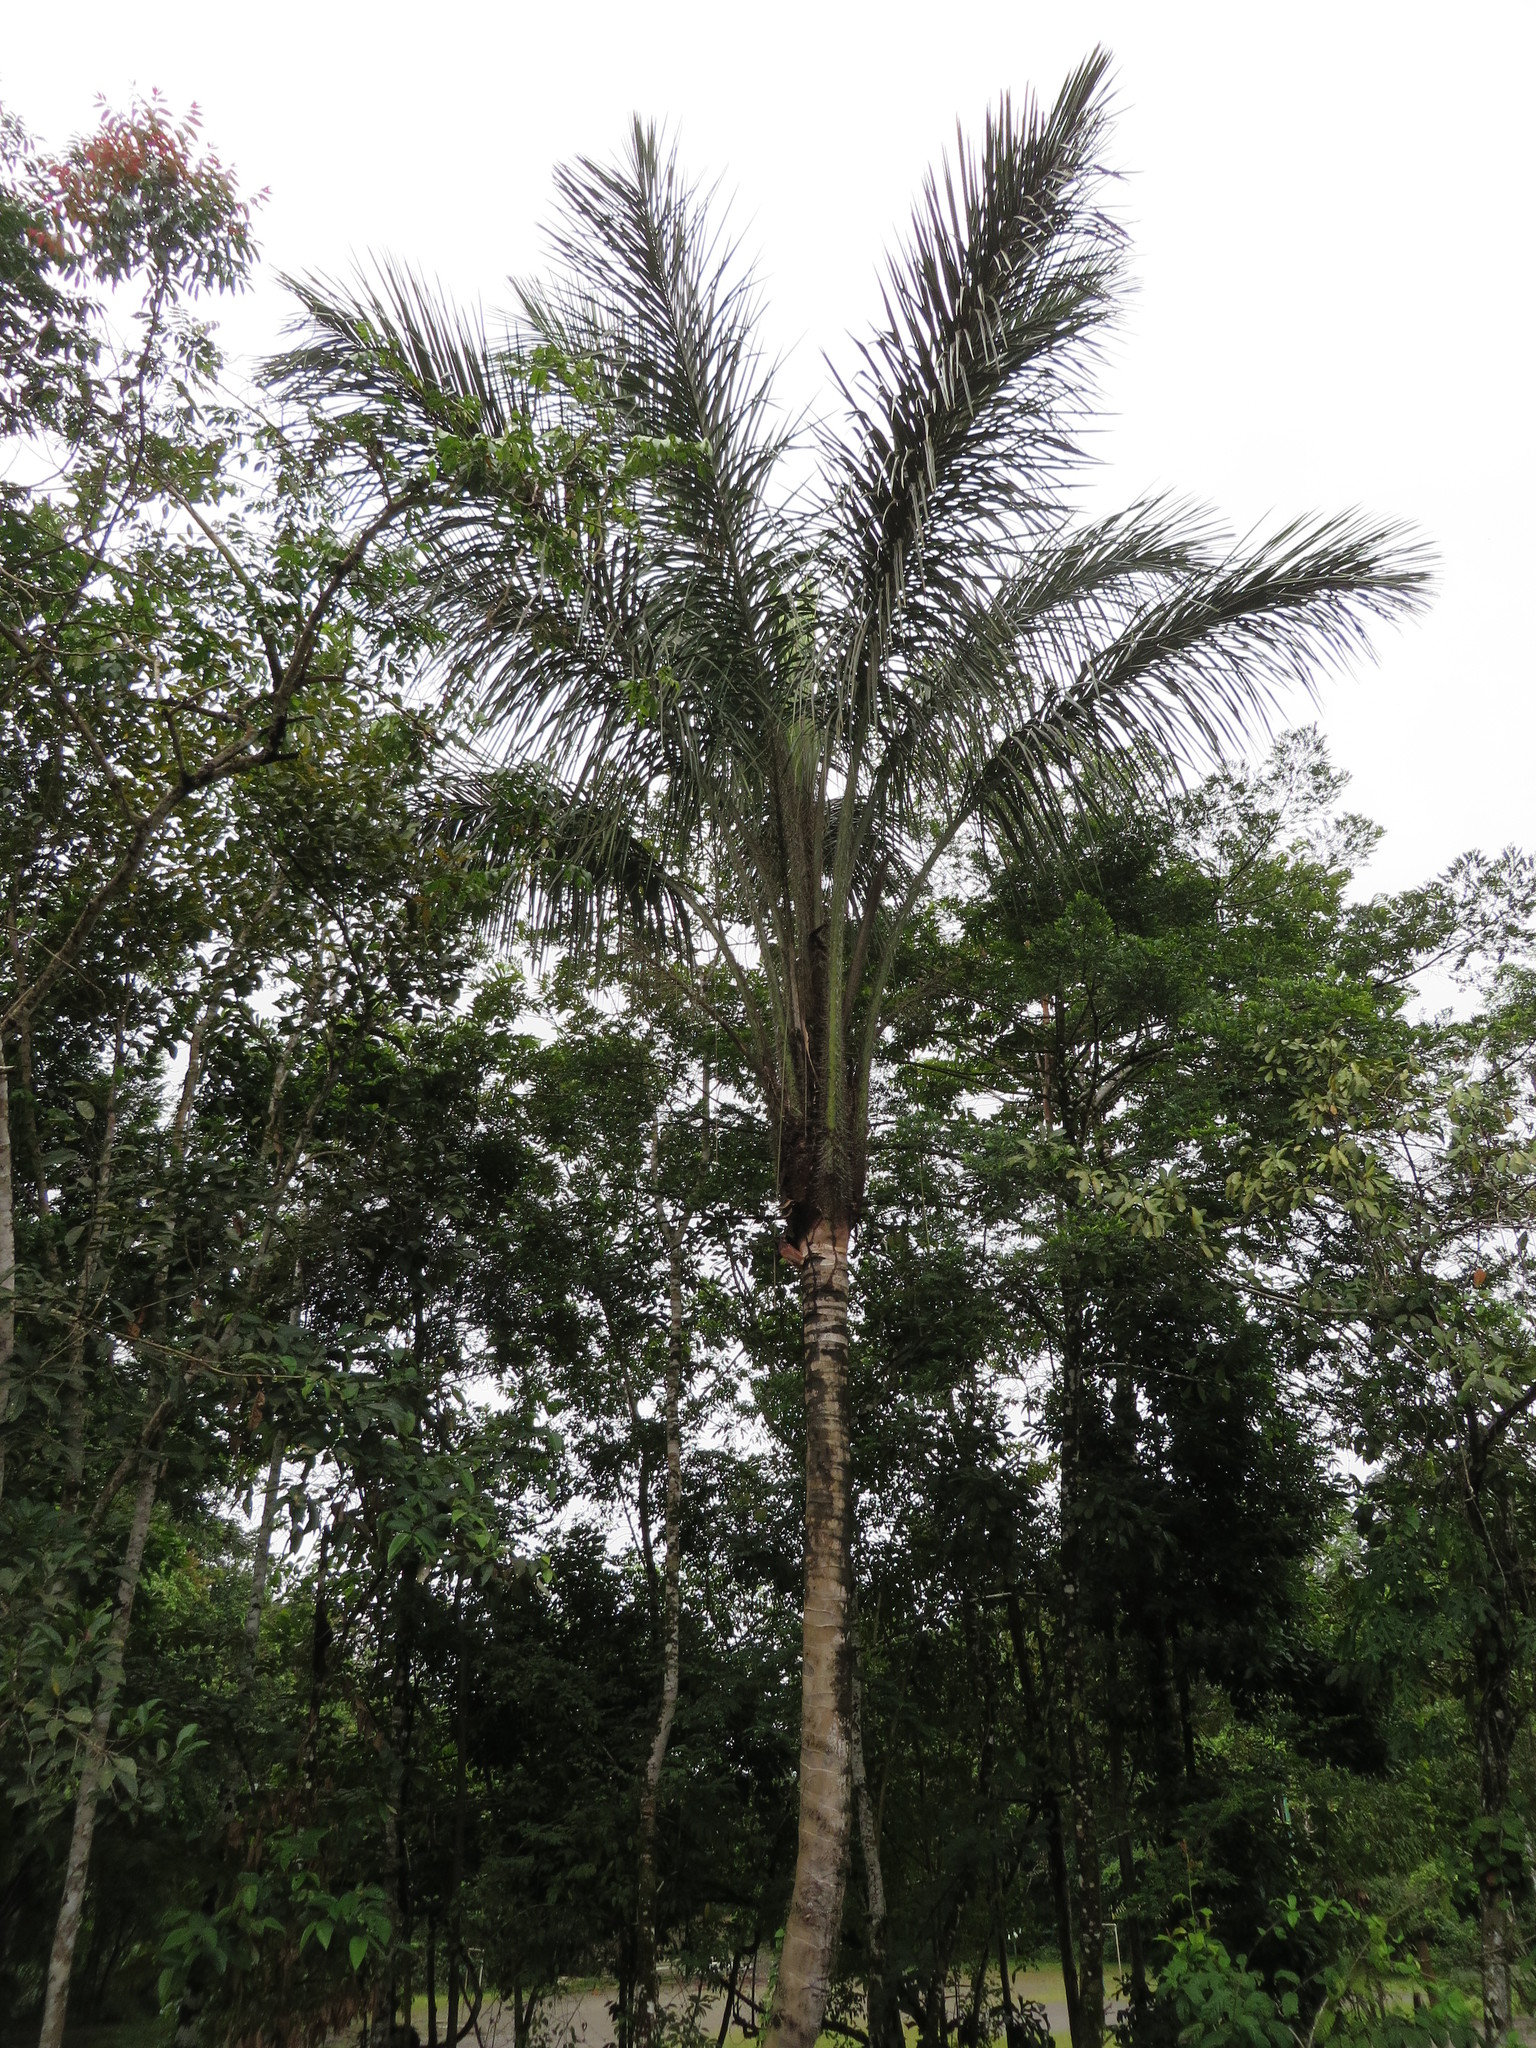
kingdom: Plantae
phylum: Tracheophyta
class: Liliopsida
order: Arecales
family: Arecaceae
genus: Astrocaryum
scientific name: Astrocaryum chambira
